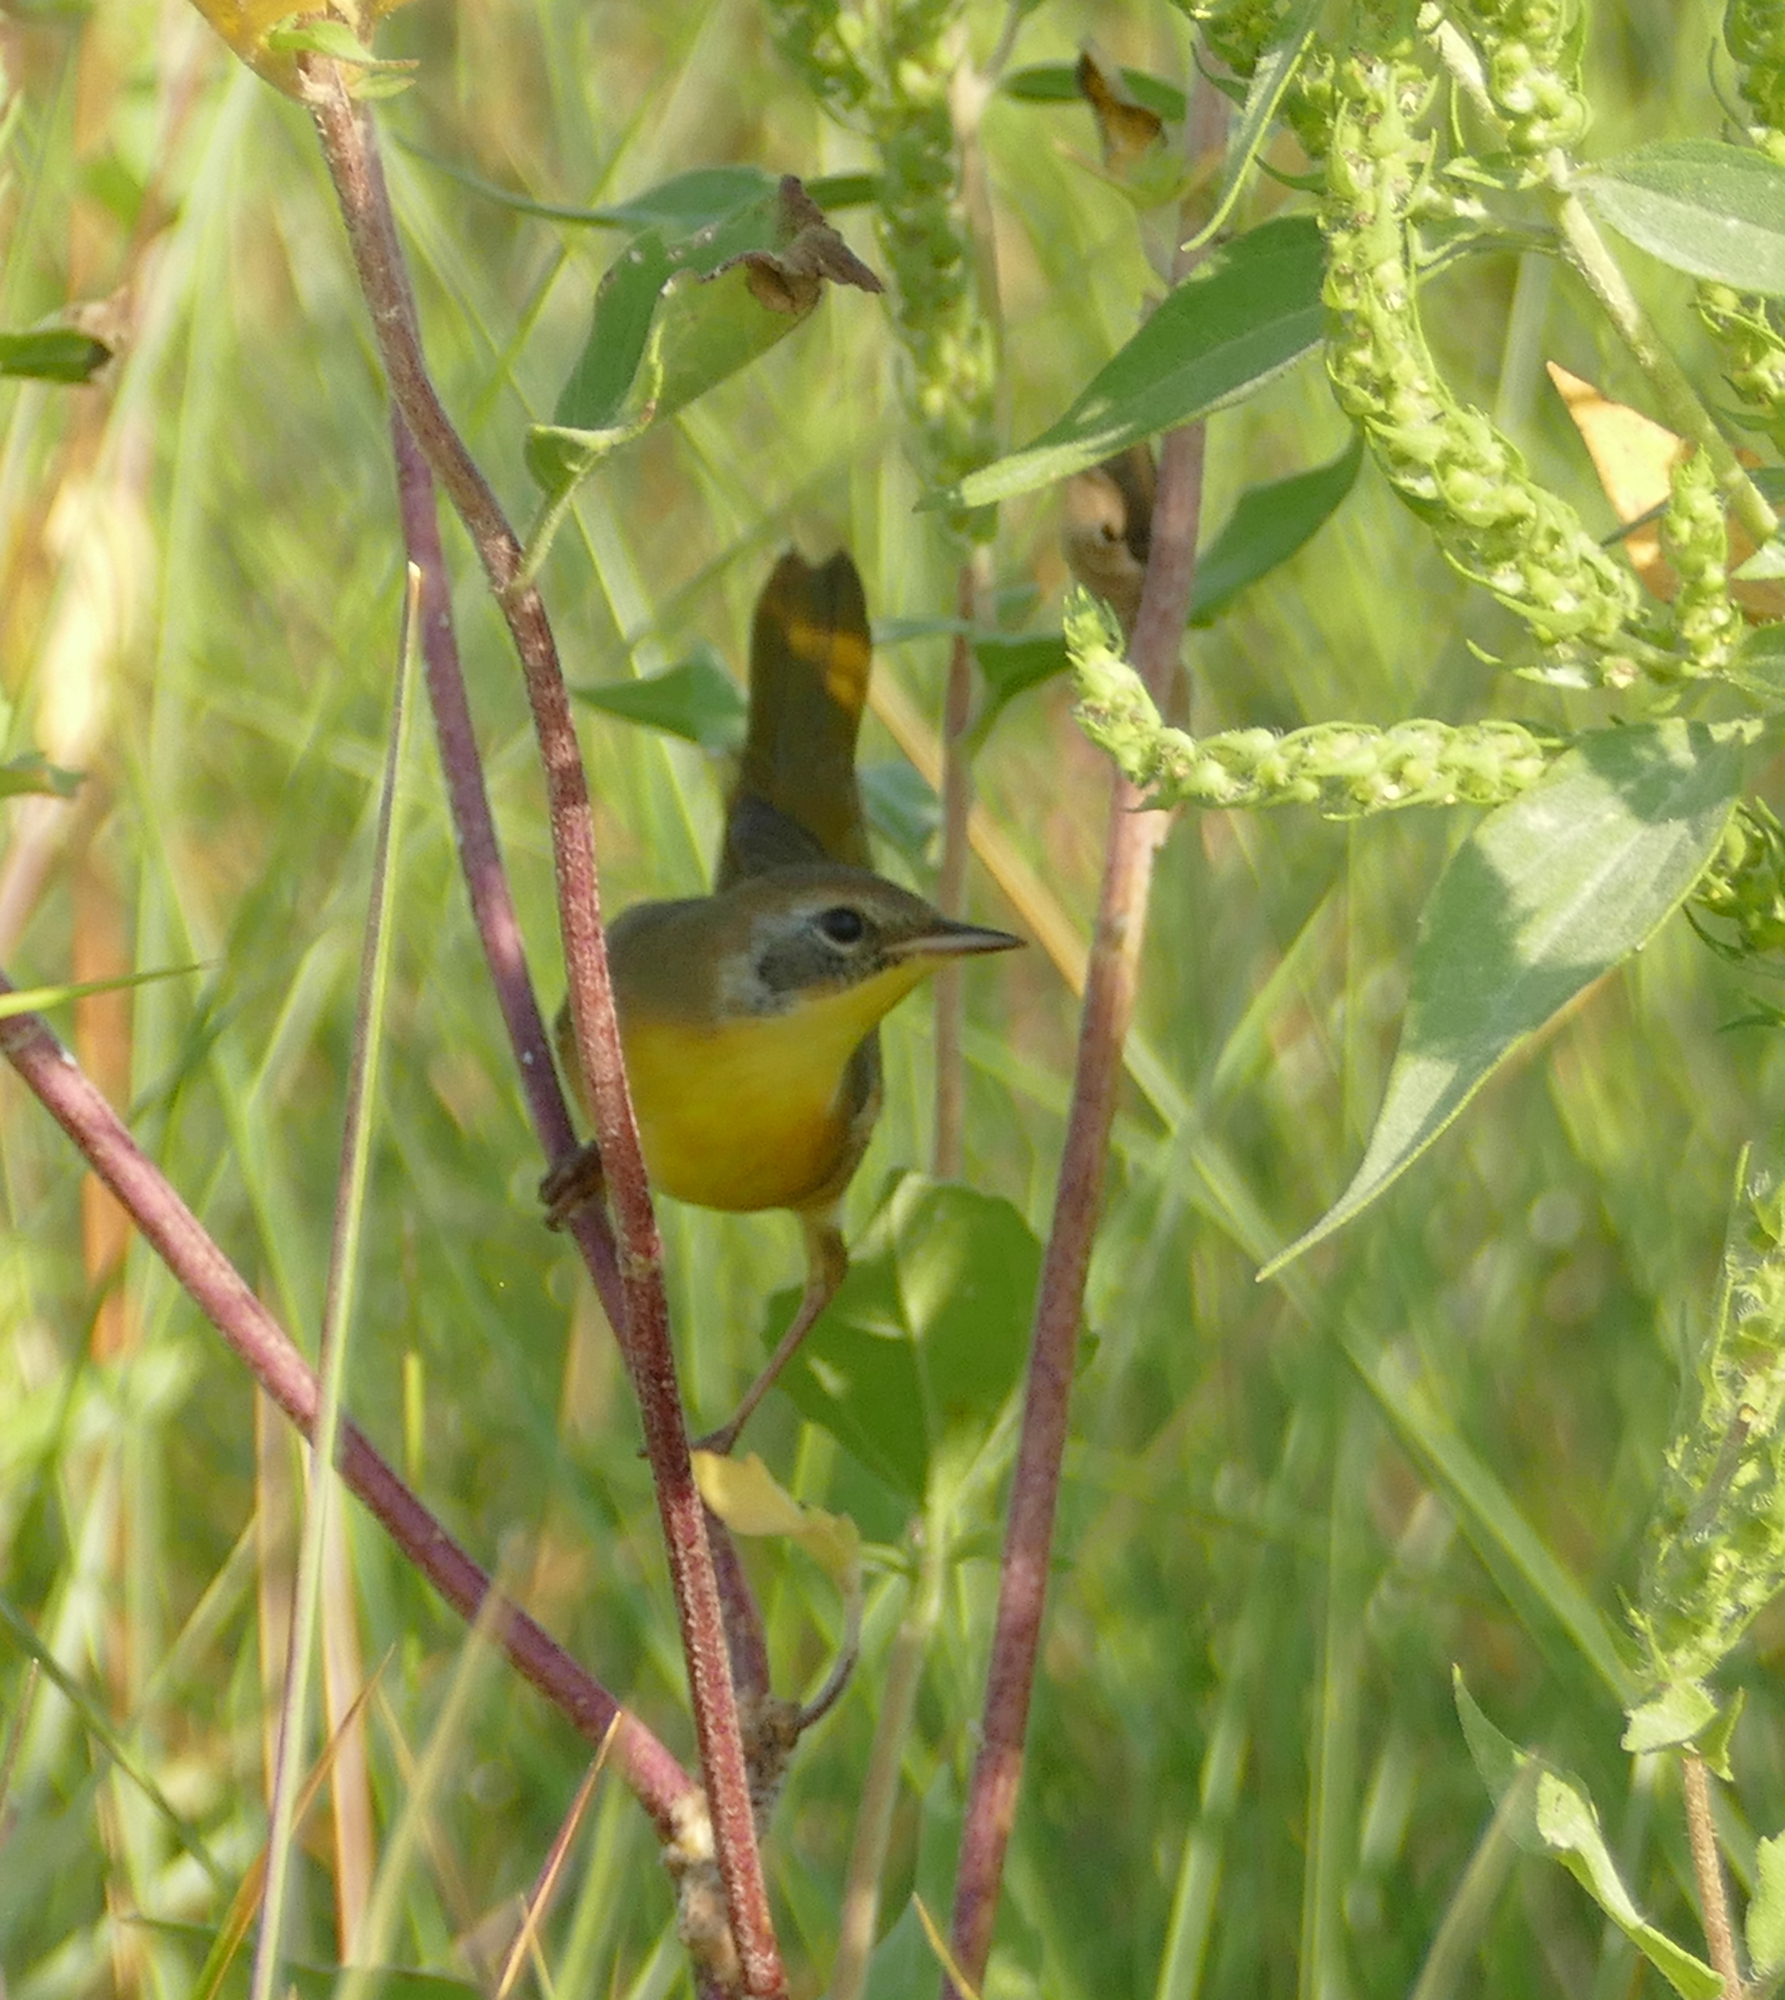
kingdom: Animalia
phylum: Chordata
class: Aves
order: Passeriformes
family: Parulidae
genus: Geothlypis
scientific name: Geothlypis trichas
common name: Common yellowthroat
